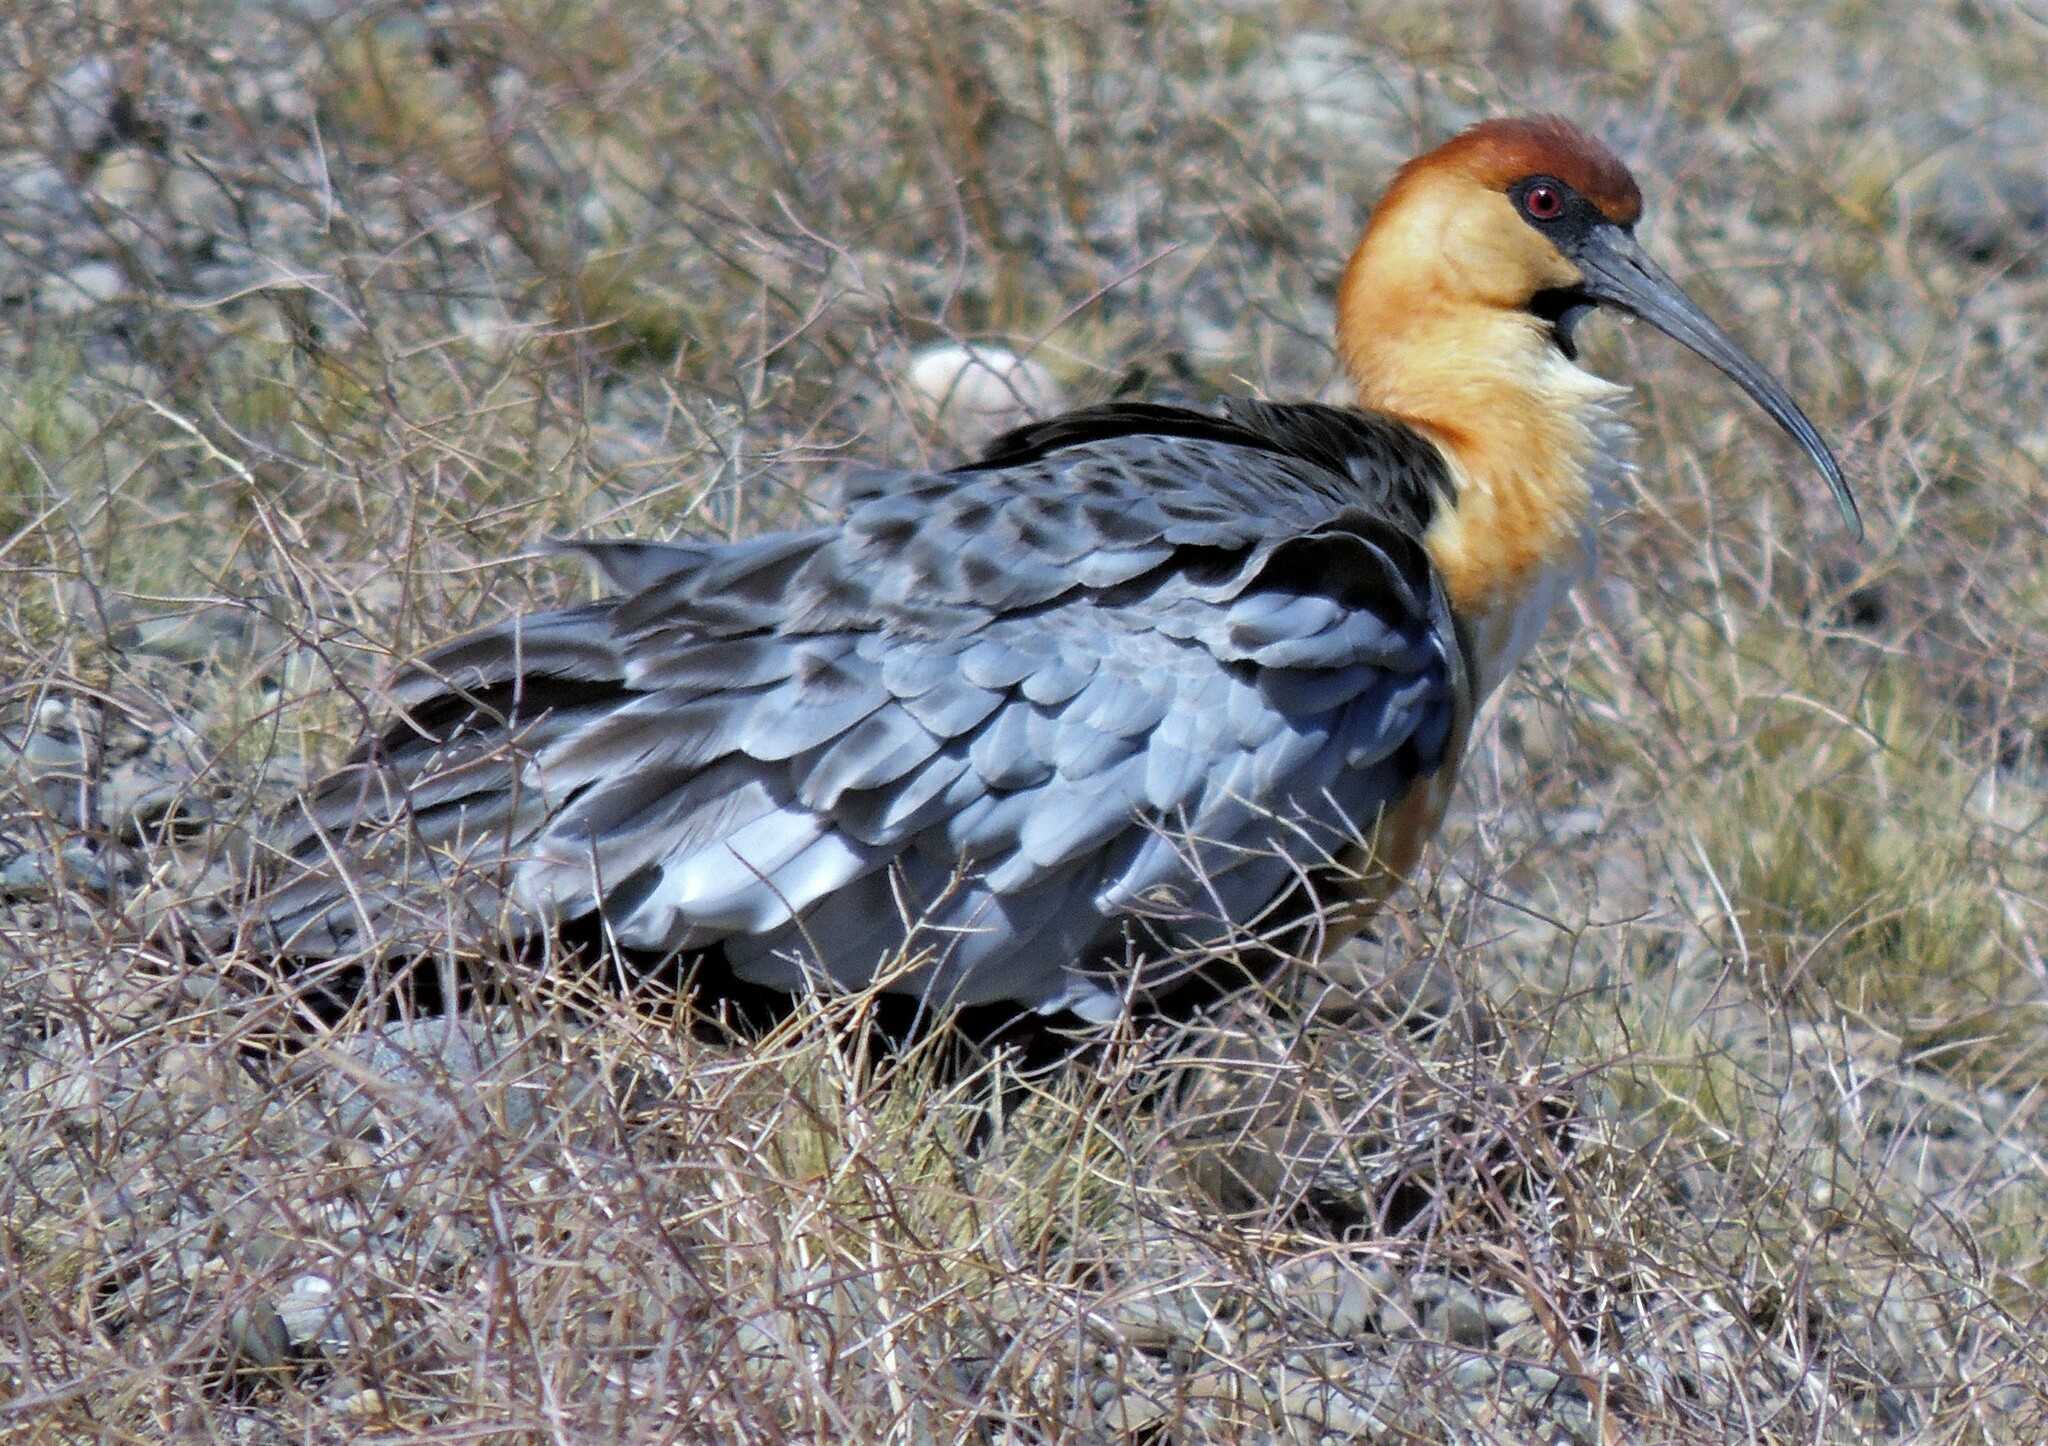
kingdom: Animalia
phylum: Chordata
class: Aves
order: Pelecaniformes
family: Threskiornithidae
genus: Theristicus
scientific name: Theristicus melanopis
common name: Black-faced ibis
